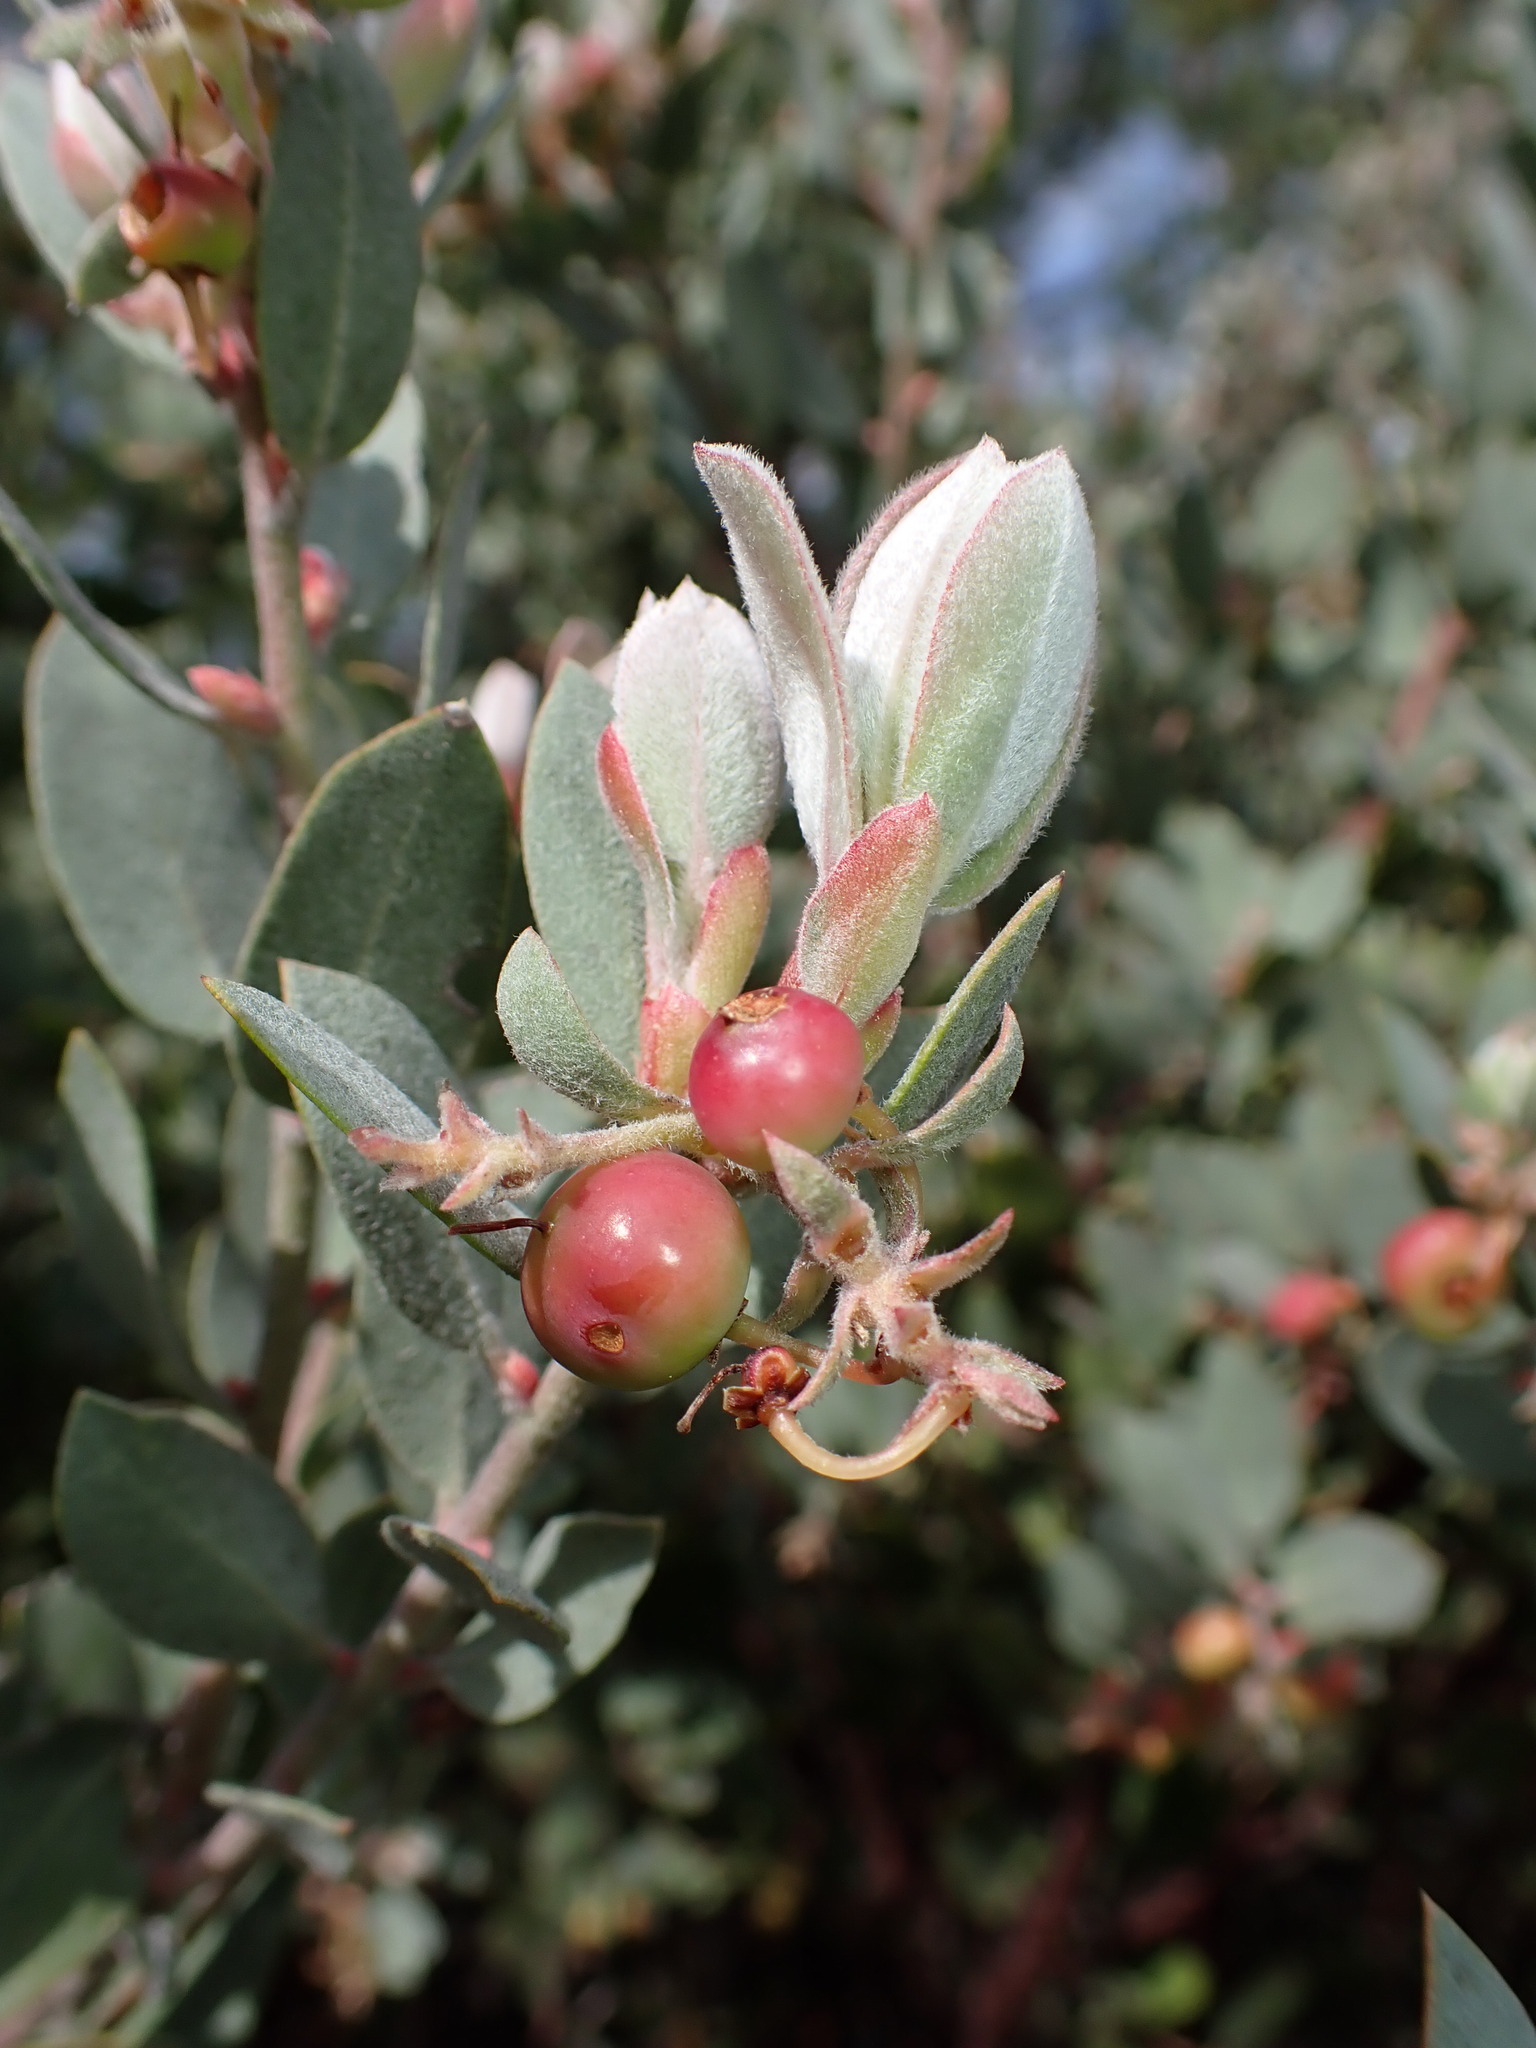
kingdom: Plantae
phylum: Tracheophyta
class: Magnoliopsida
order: Ericales
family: Ericaceae
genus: Arctostaphylos
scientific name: Arctostaphylos silvicola
